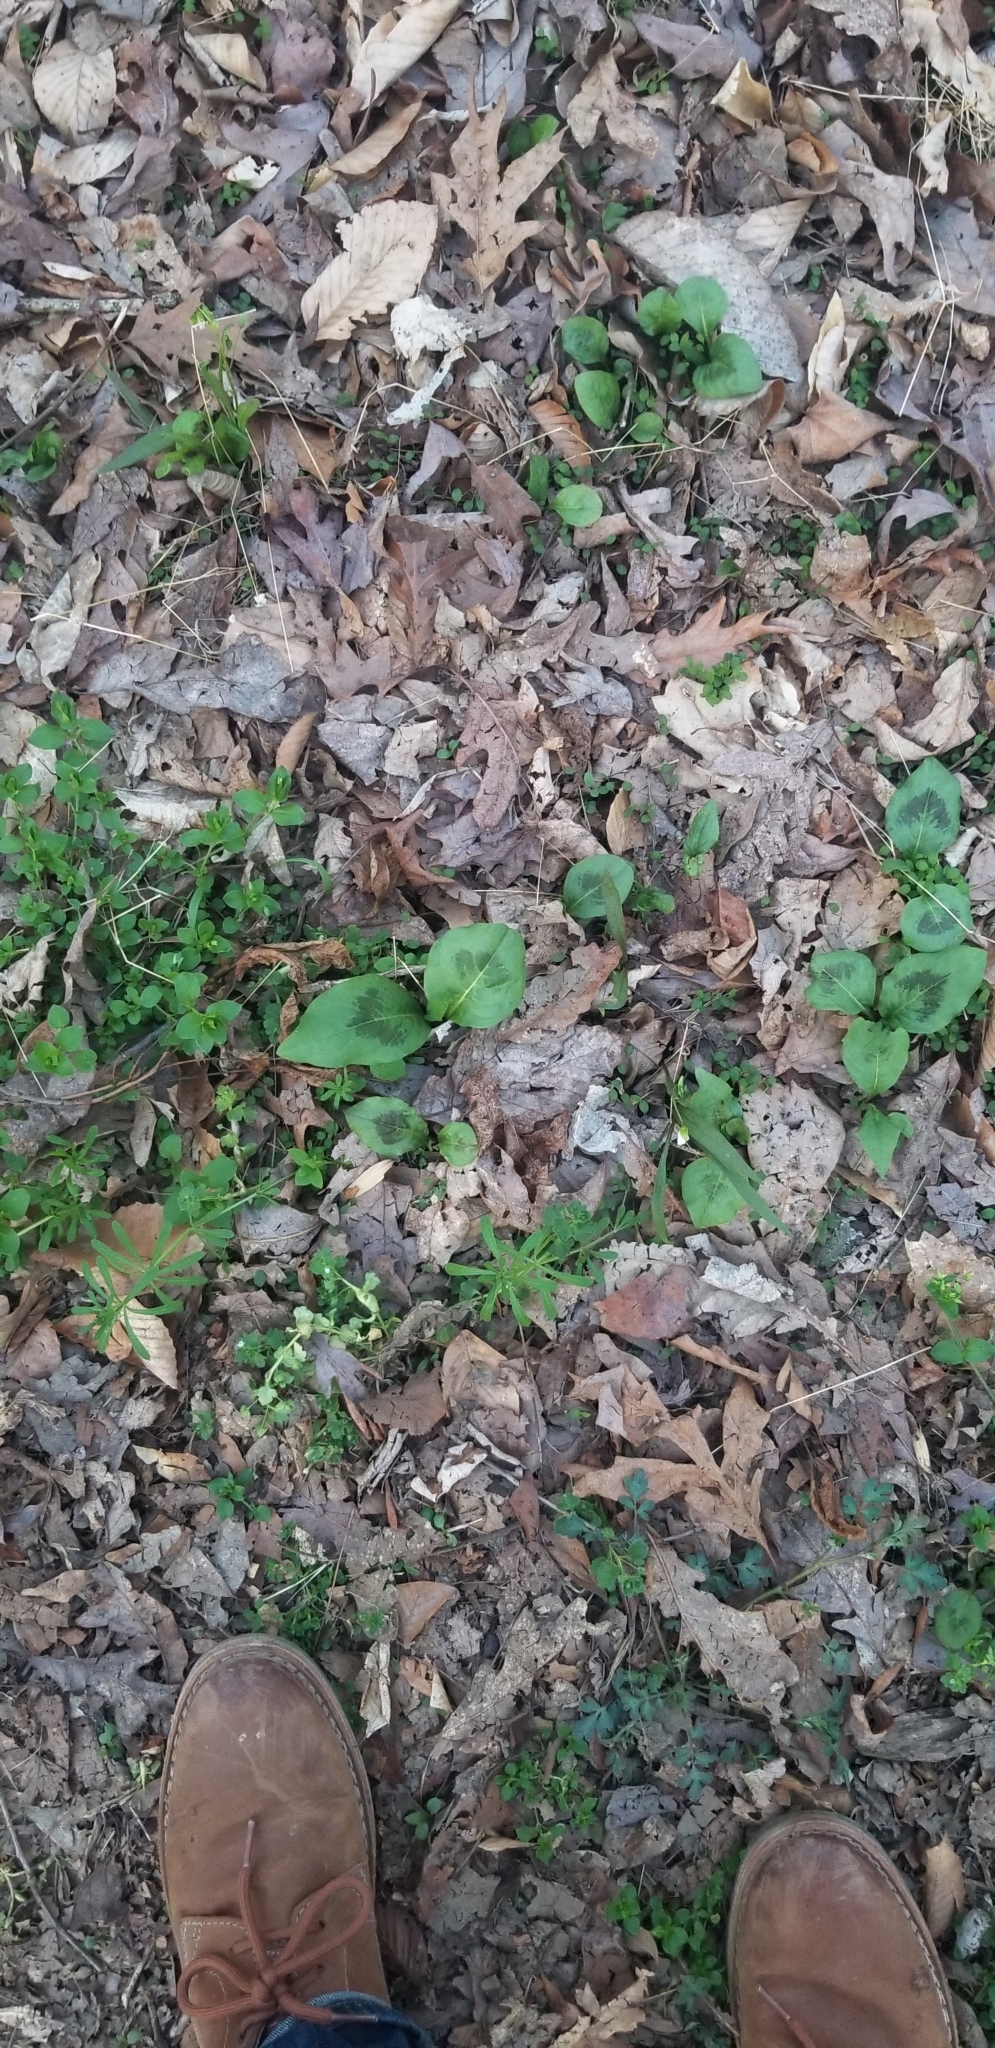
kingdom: Plantae
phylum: Tracheophyta
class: Magnoliopsida
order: Caryophyllales
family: Polygonaceae
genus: Persicaria
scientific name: Persicaria virginiana
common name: Jumpseed
